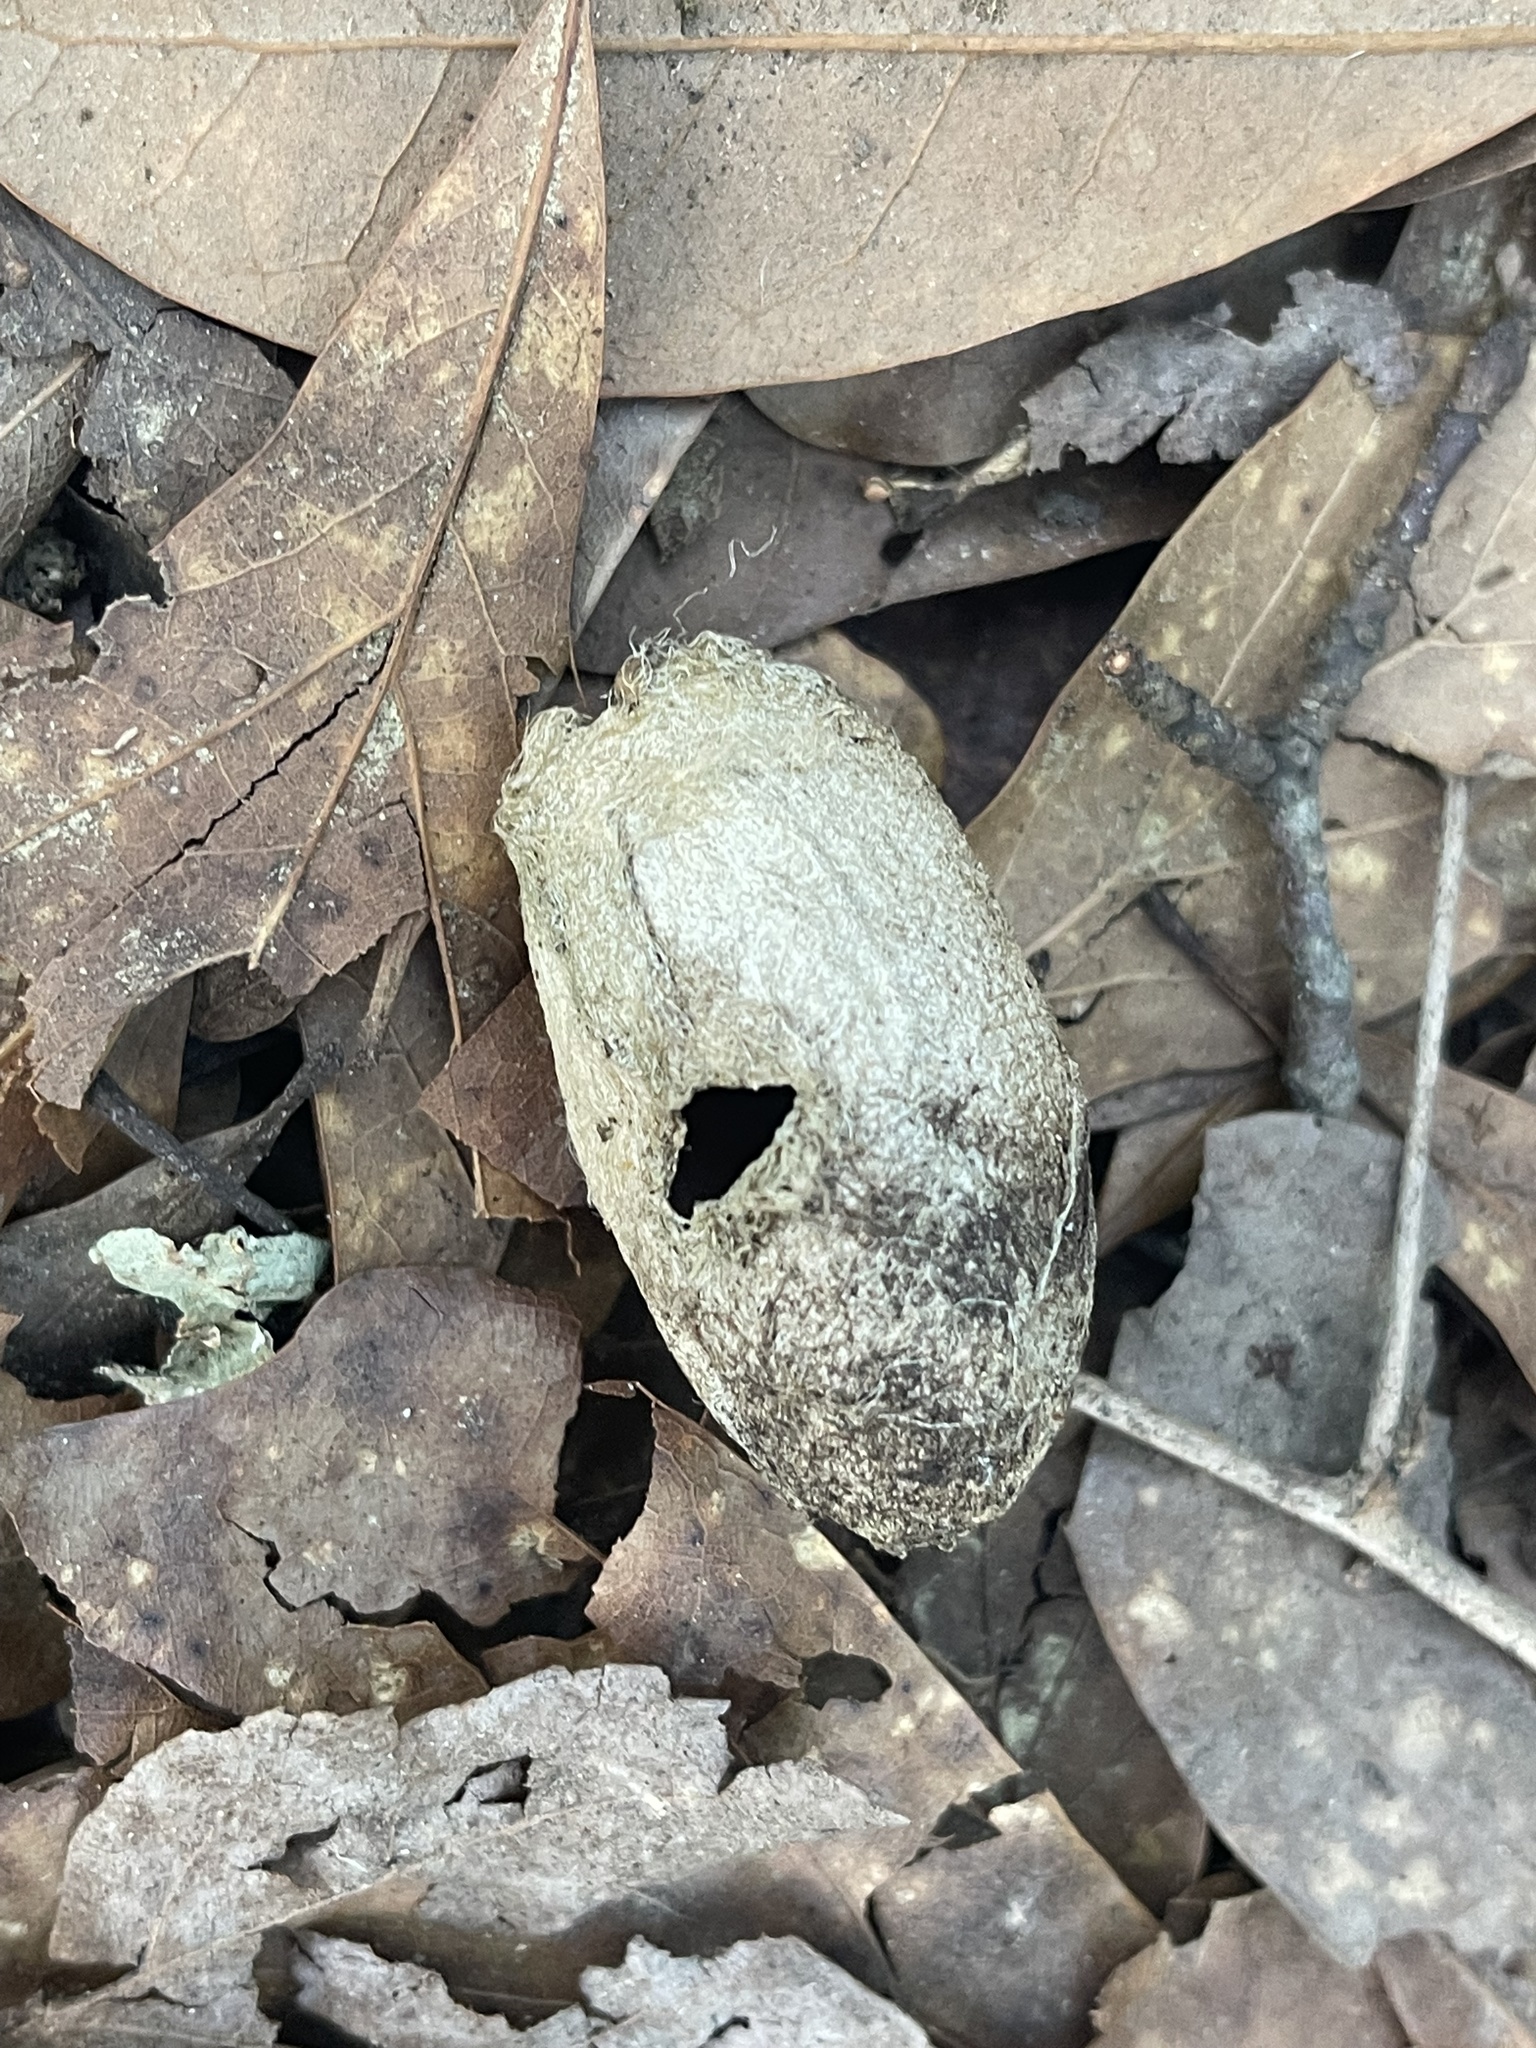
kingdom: Animalia
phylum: Arthropoda
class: Insecta
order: Lepidoptera
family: Saturniidae
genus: Antheraea
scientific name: Antheraea polyphemus
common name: Polyphemus moth
